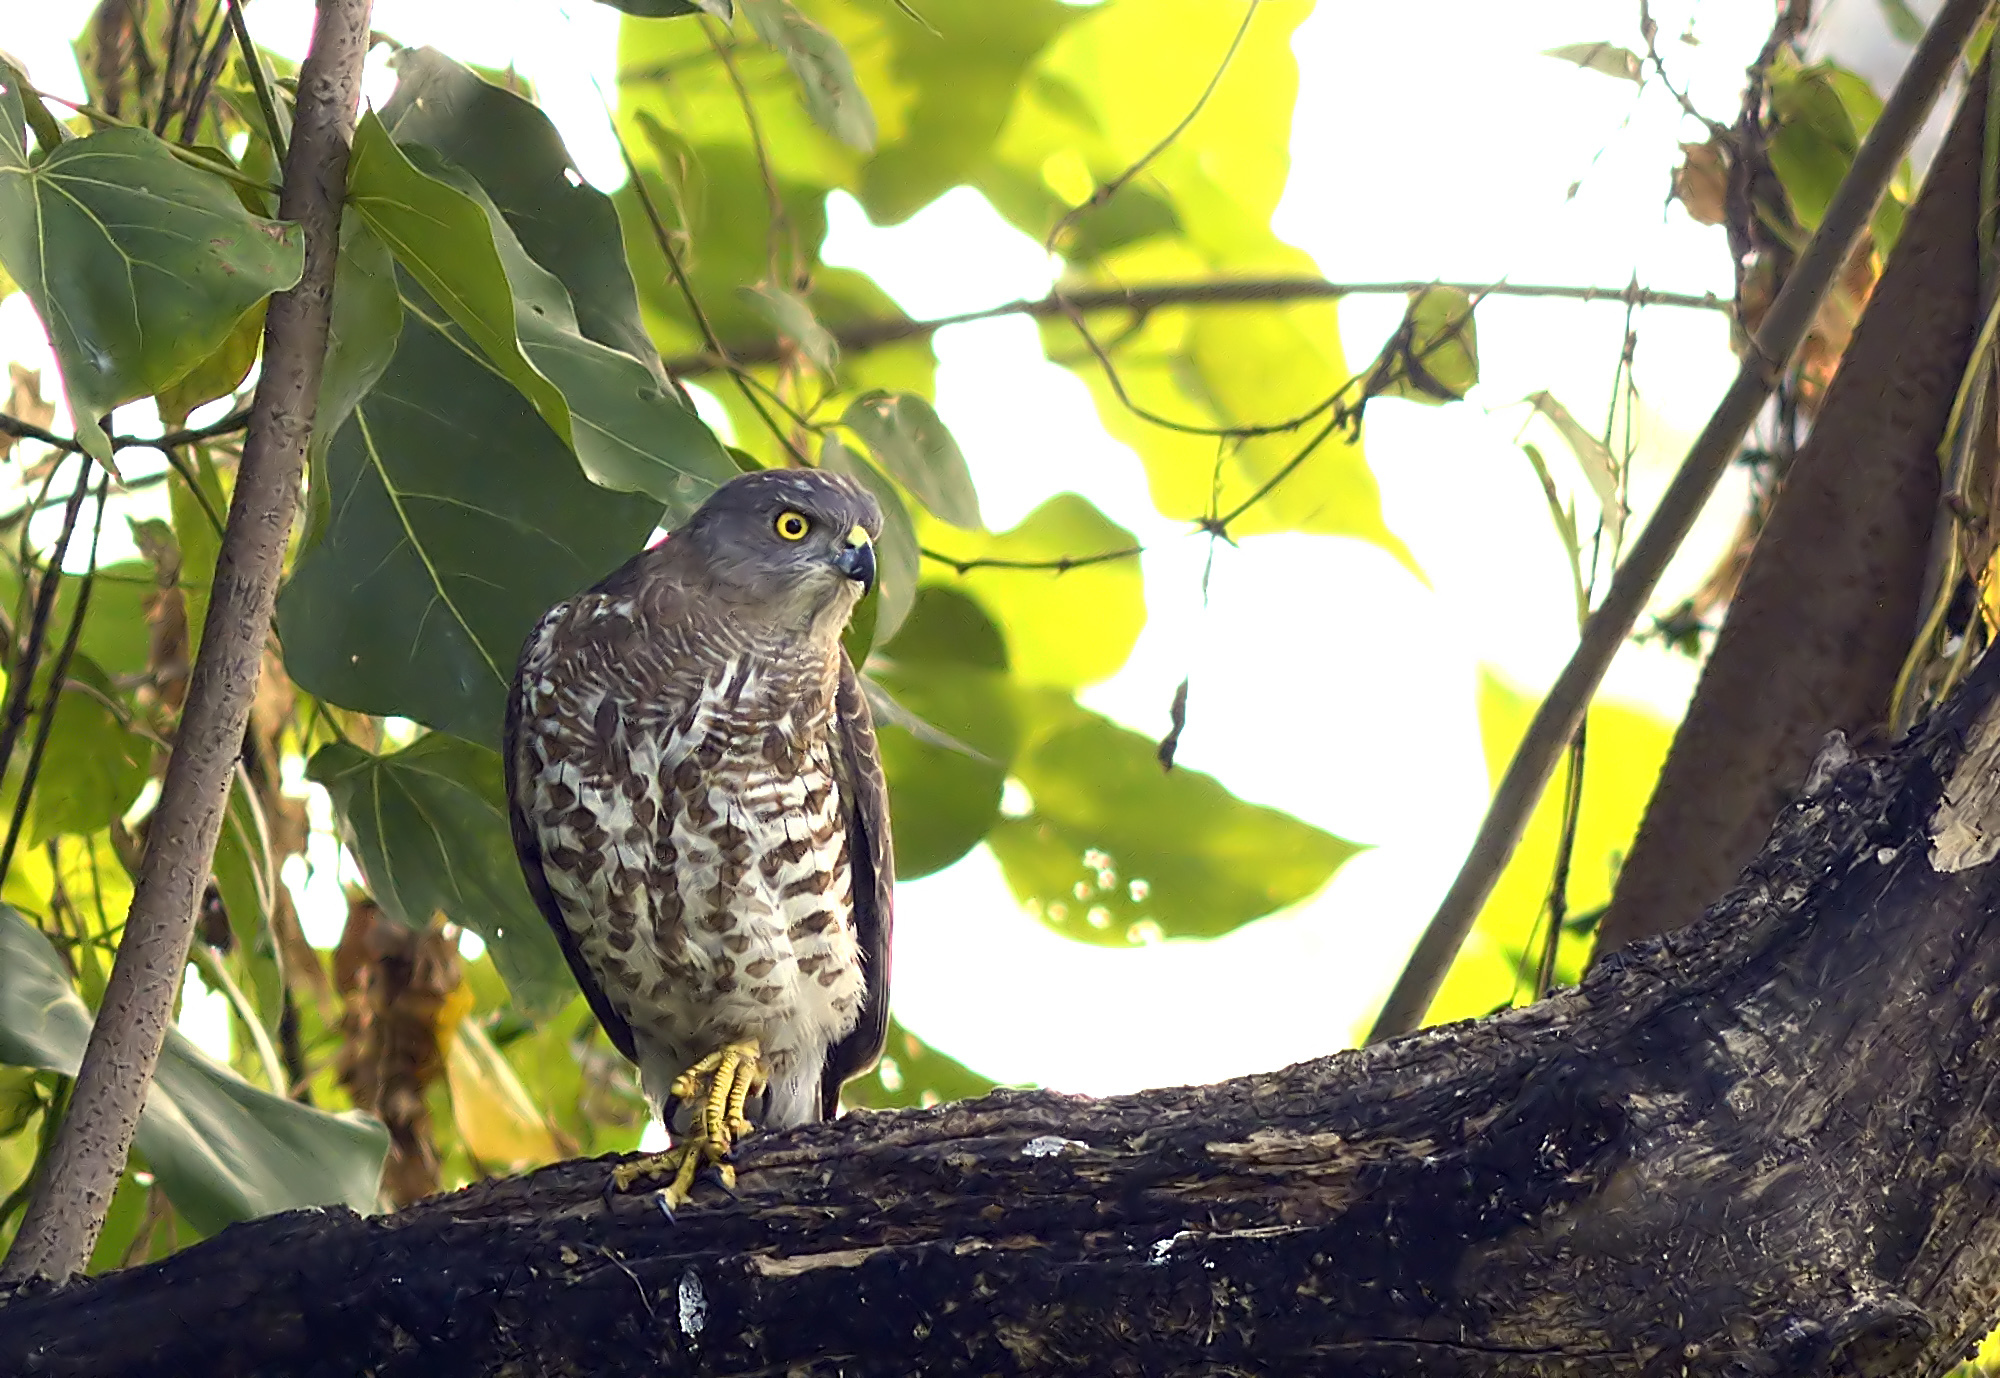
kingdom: Animalia
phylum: Chordata
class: Aves
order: Accipitriformes
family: Accipitridae
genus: Accipiter
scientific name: Accipiter badius
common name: Shikra
